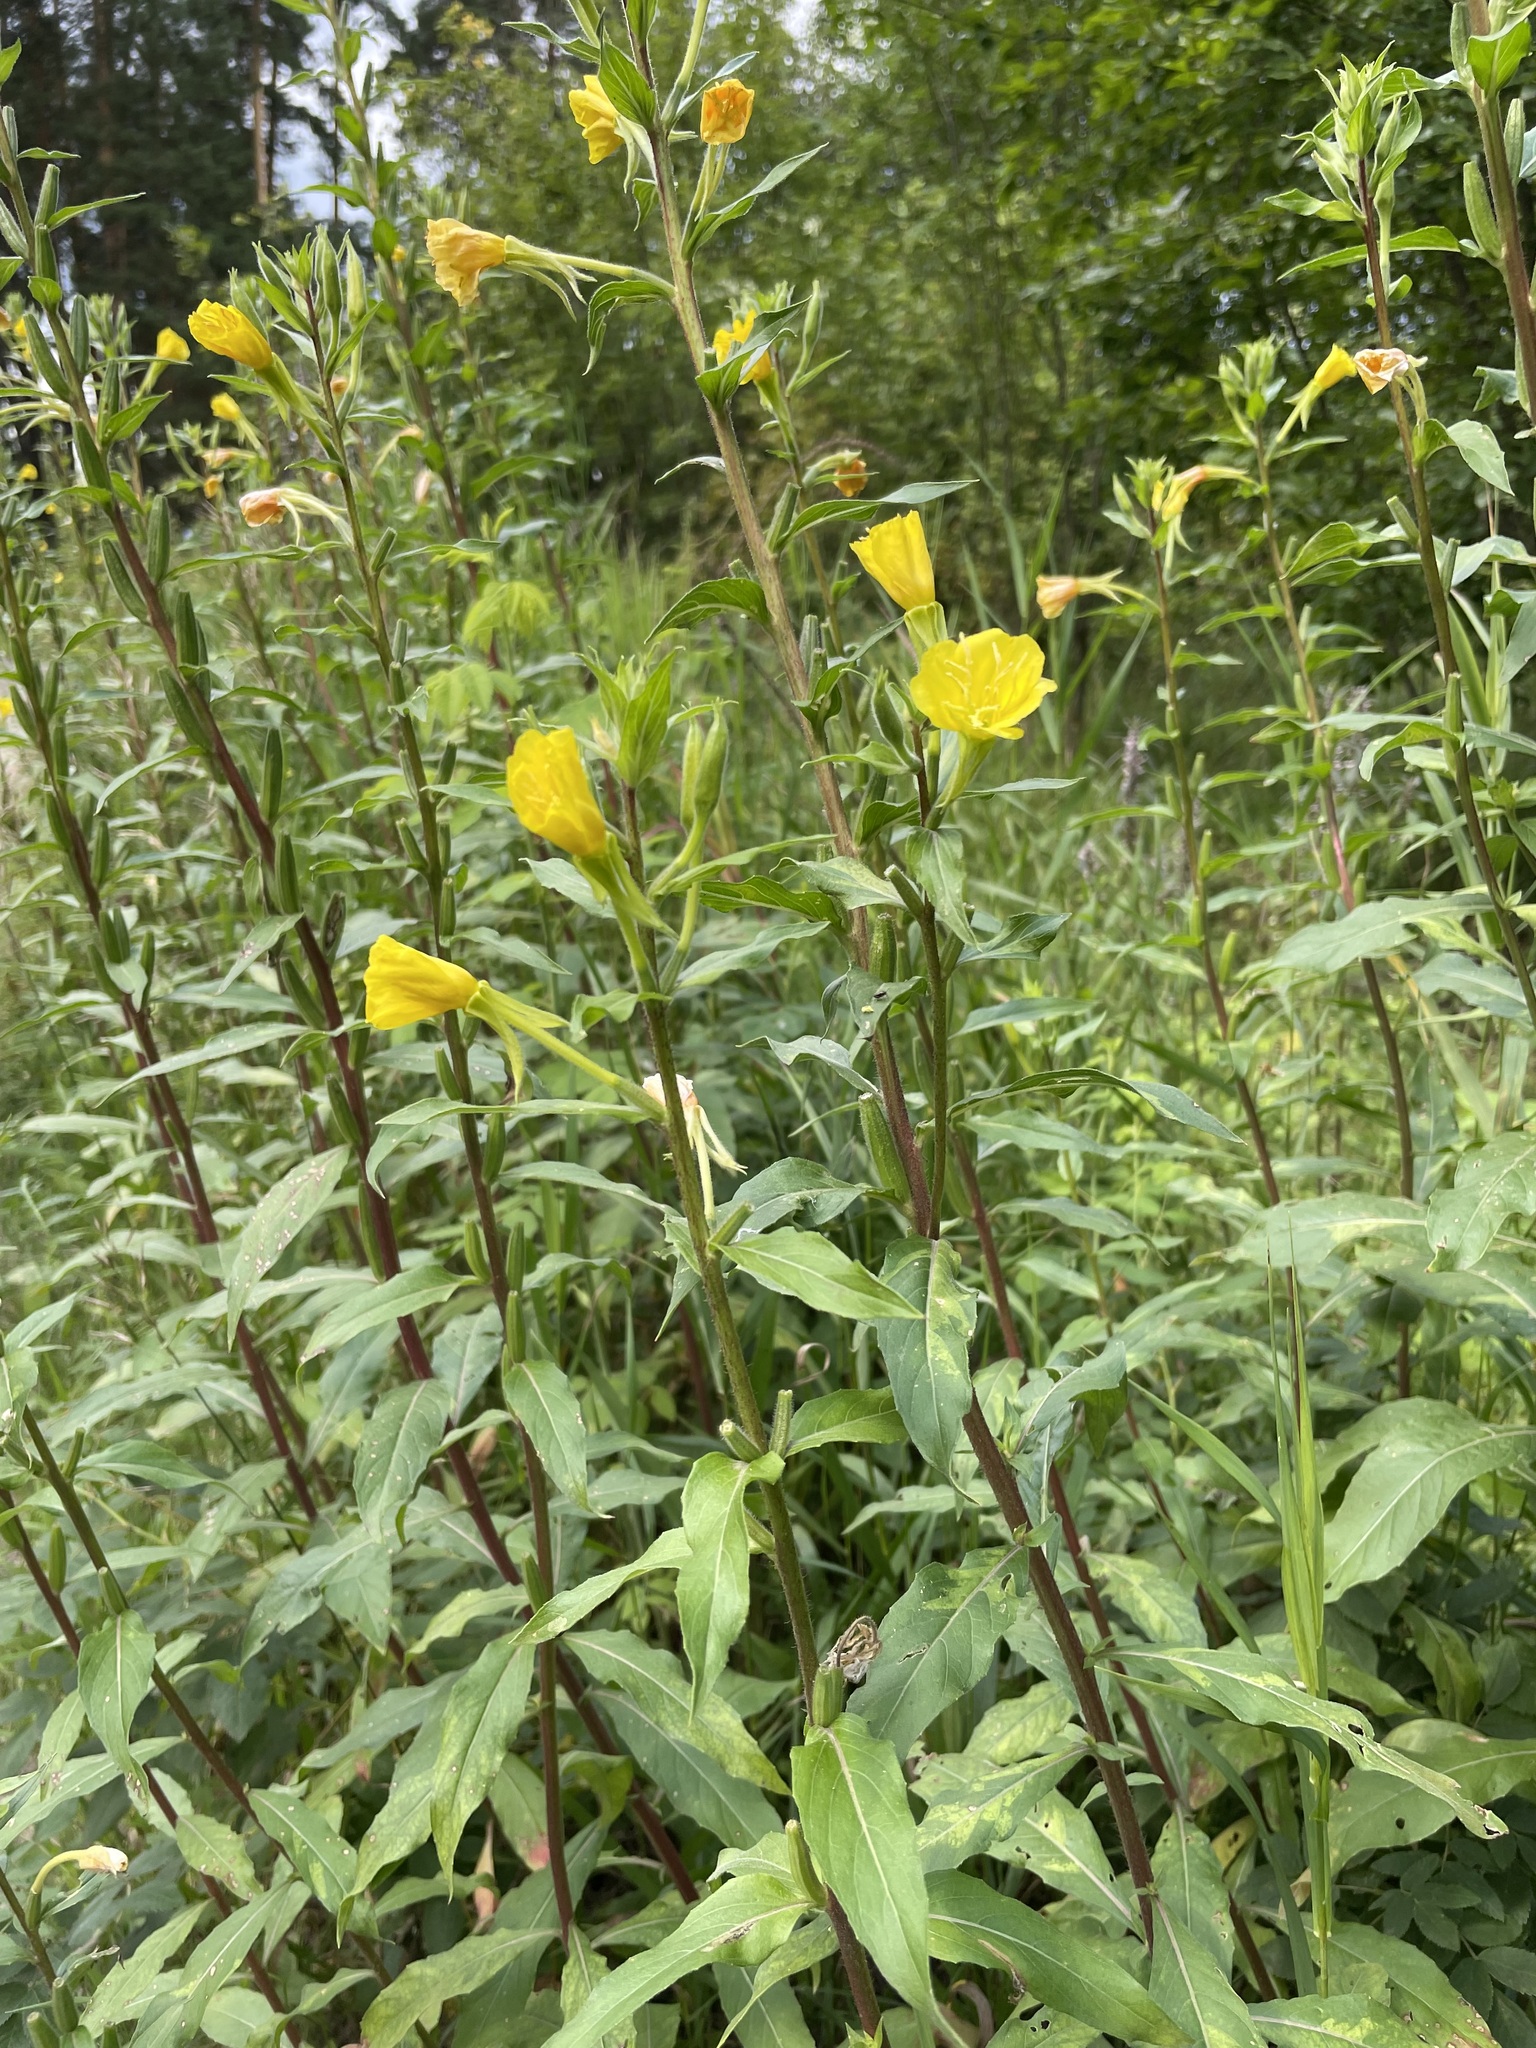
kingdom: Plantae
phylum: Tracheophyta
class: Magnoliopsida
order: Myrtales
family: Onagraceae
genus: Oenothera
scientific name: Oenothera rubricaulis
